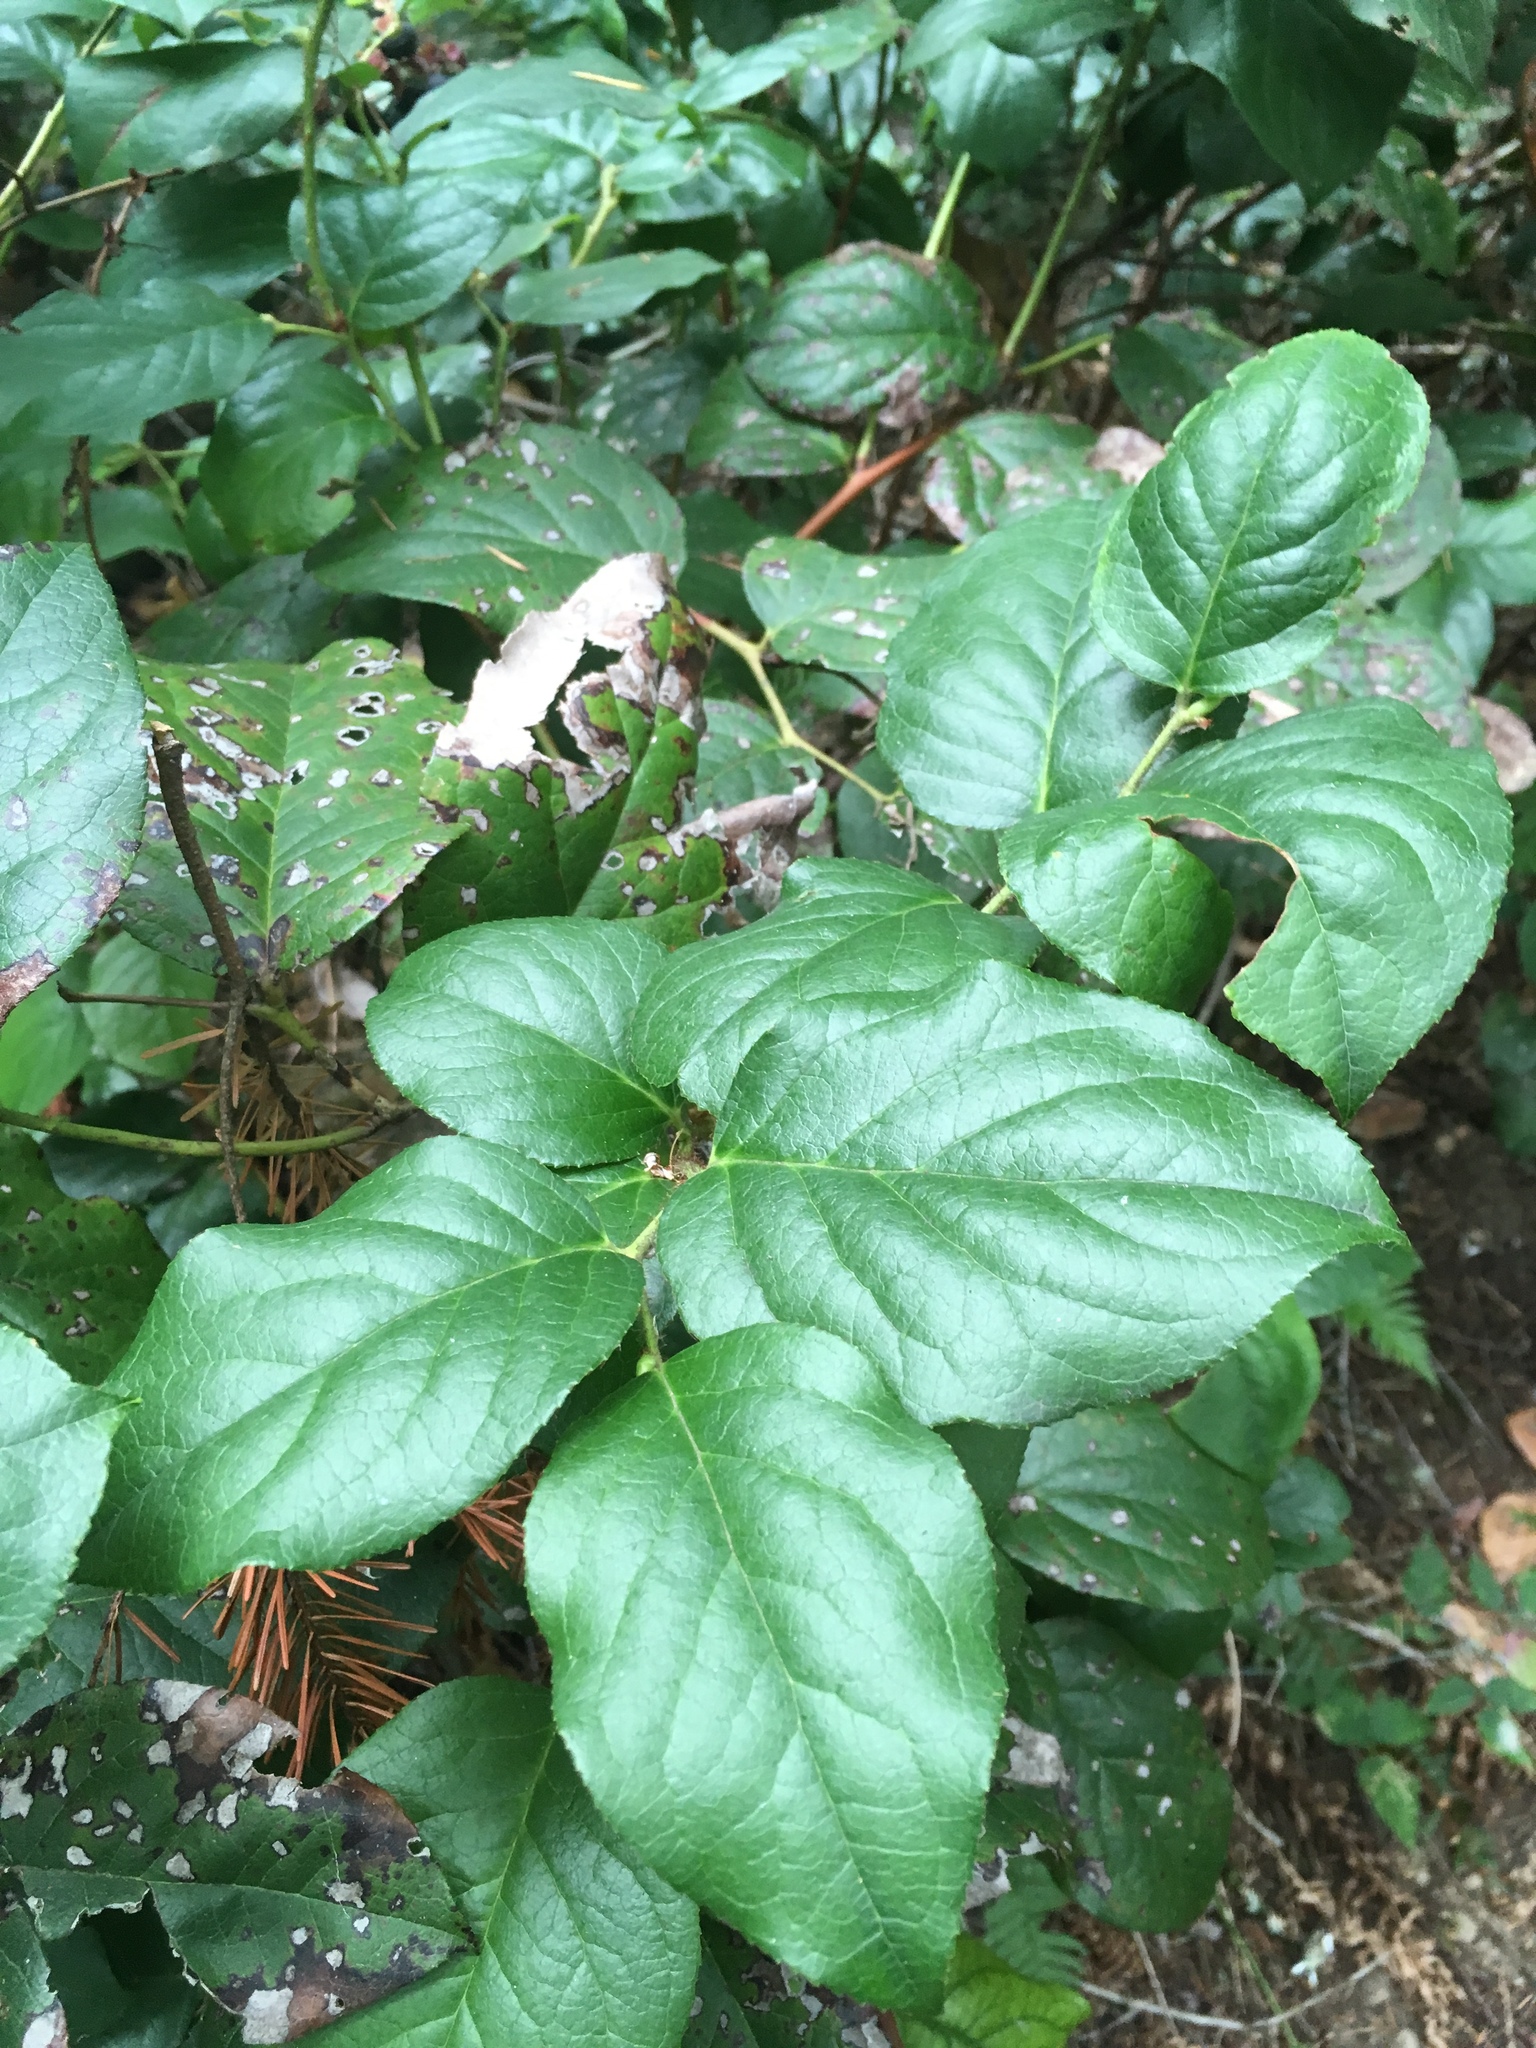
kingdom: Plantae
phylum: Tracheophyta
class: Magnoliopsida
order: Ericales
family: Ericaceae
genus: Gaultheria
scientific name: Gaultheria shallon
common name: Shallon
